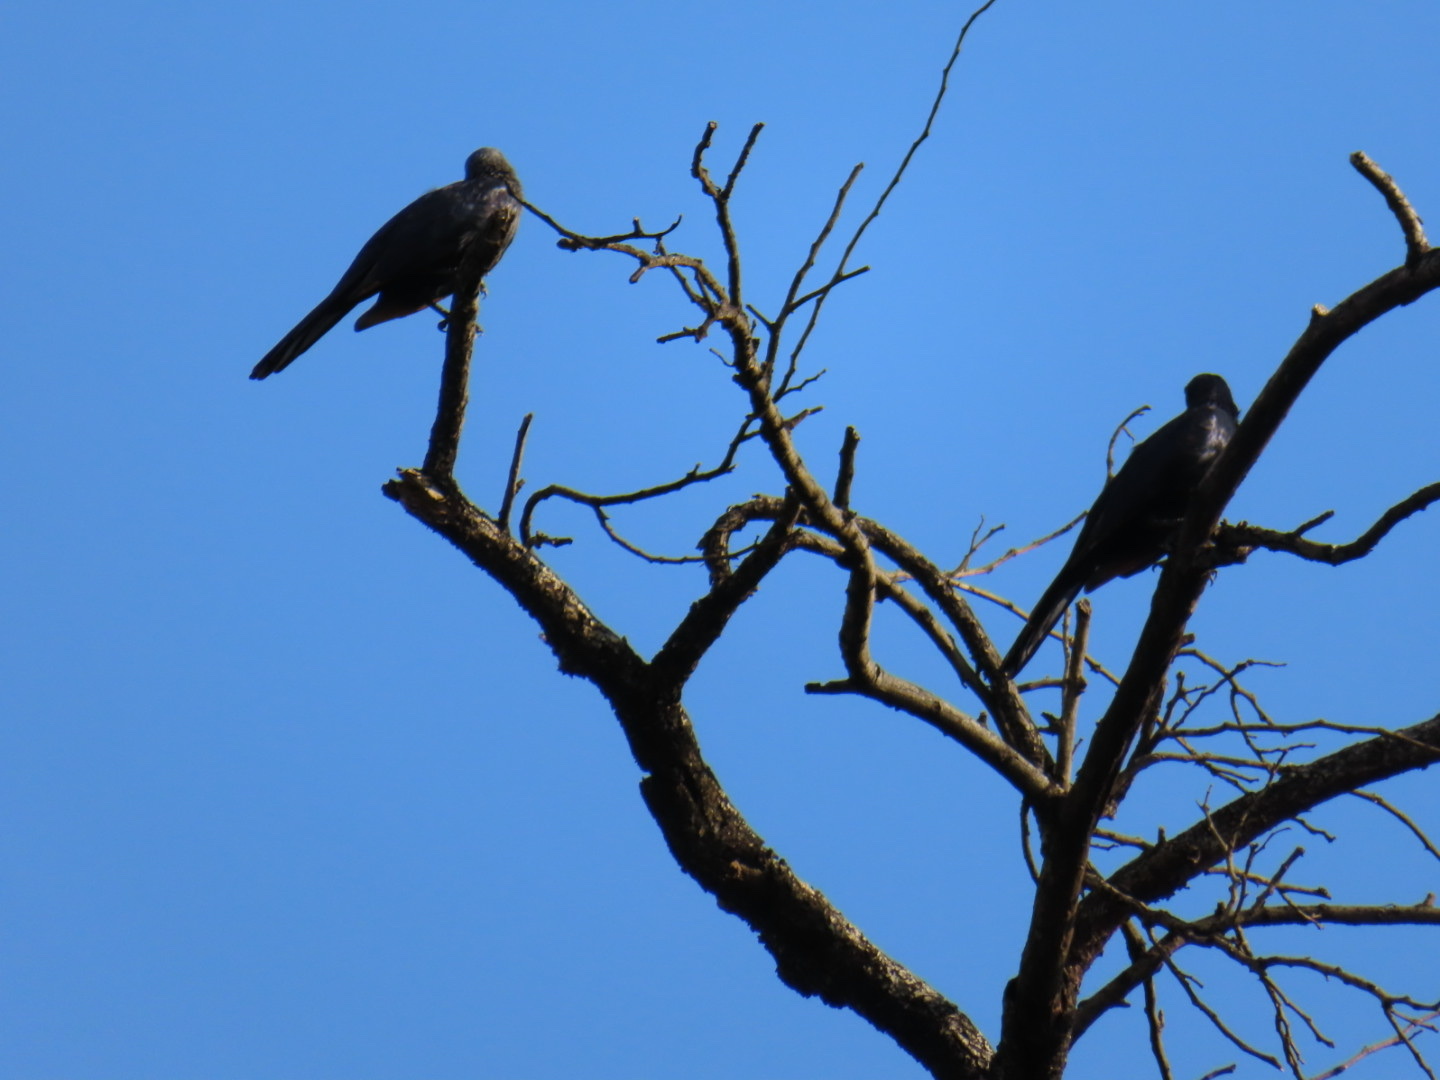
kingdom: Animalia
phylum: Chordata
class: Aves
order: Passeriformes
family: Sturnidae
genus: Onychognathus
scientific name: Onychognathus morio
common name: Red-winged starling
